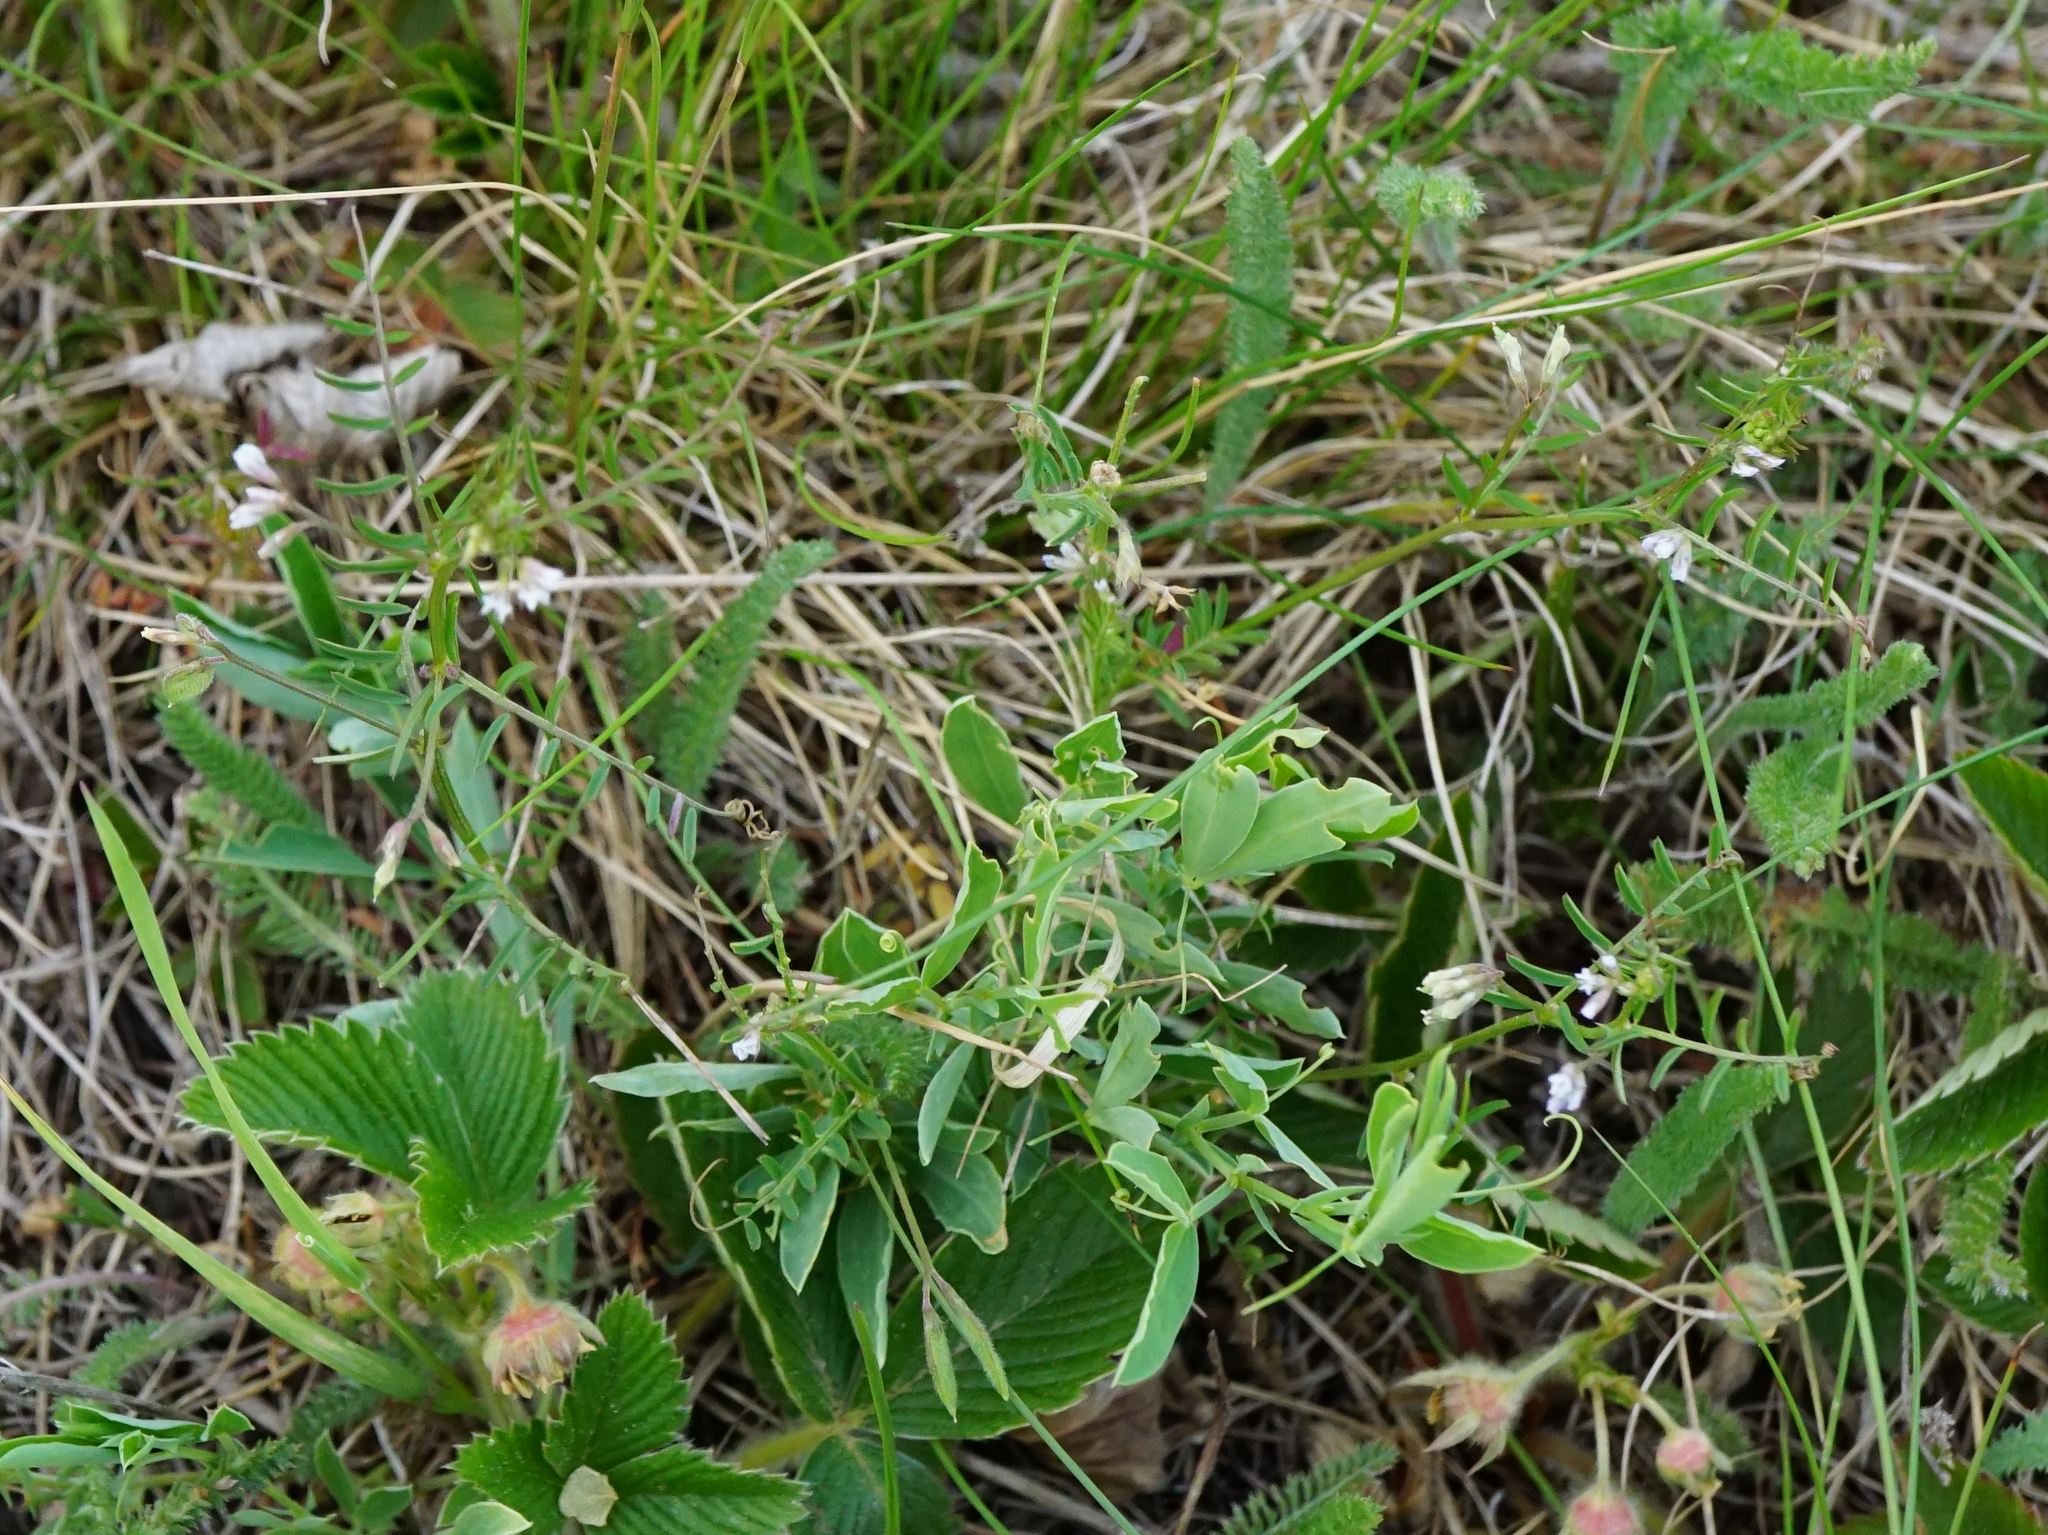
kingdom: Plantae
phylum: Tracheophyta
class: Magnoliopsida
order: Fabales
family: Fabaceae
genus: Vicia
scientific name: Vicia hirsuta
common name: Tiny vetch
